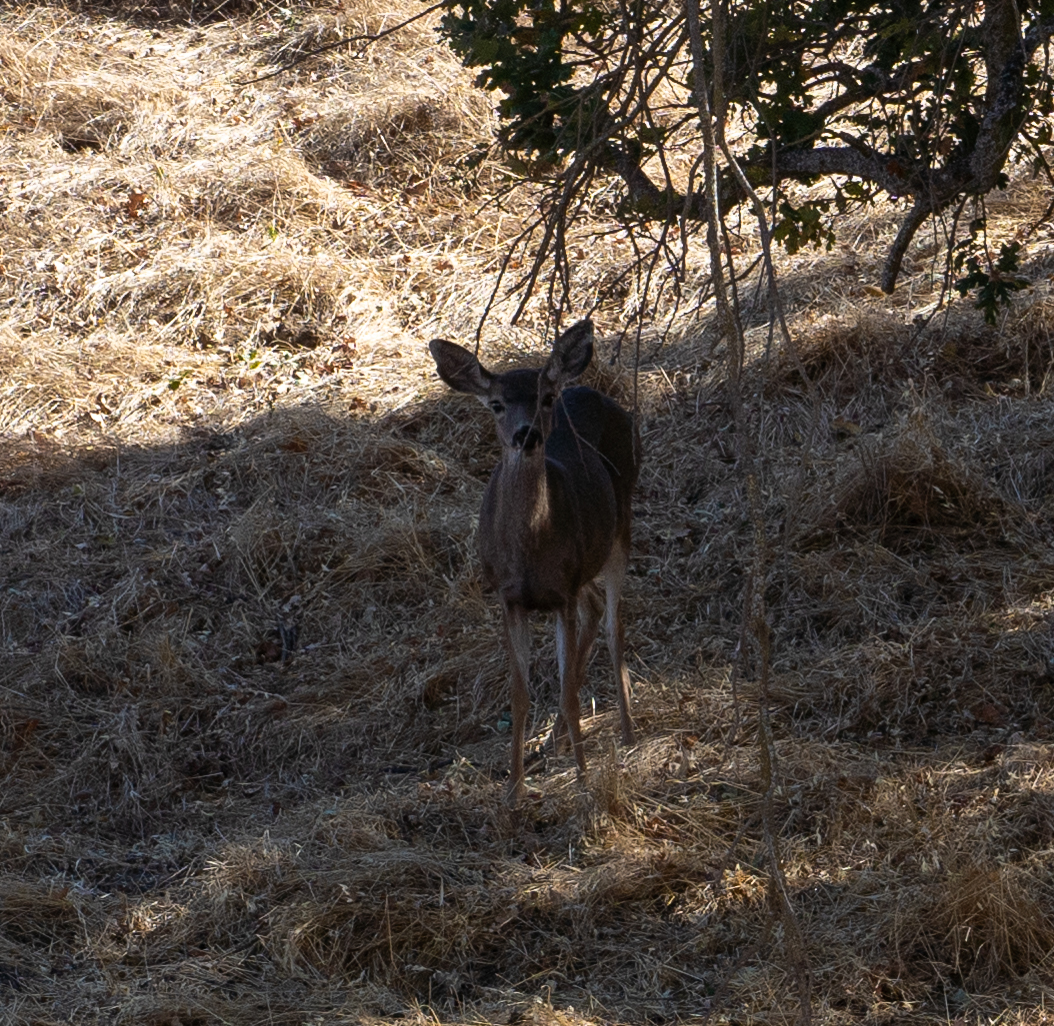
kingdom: Animalia
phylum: Chordata
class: Mammalia
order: Artiodactyla
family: Cervidae
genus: Odocoileus
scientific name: Odocoileus hemionus
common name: Mule deer
